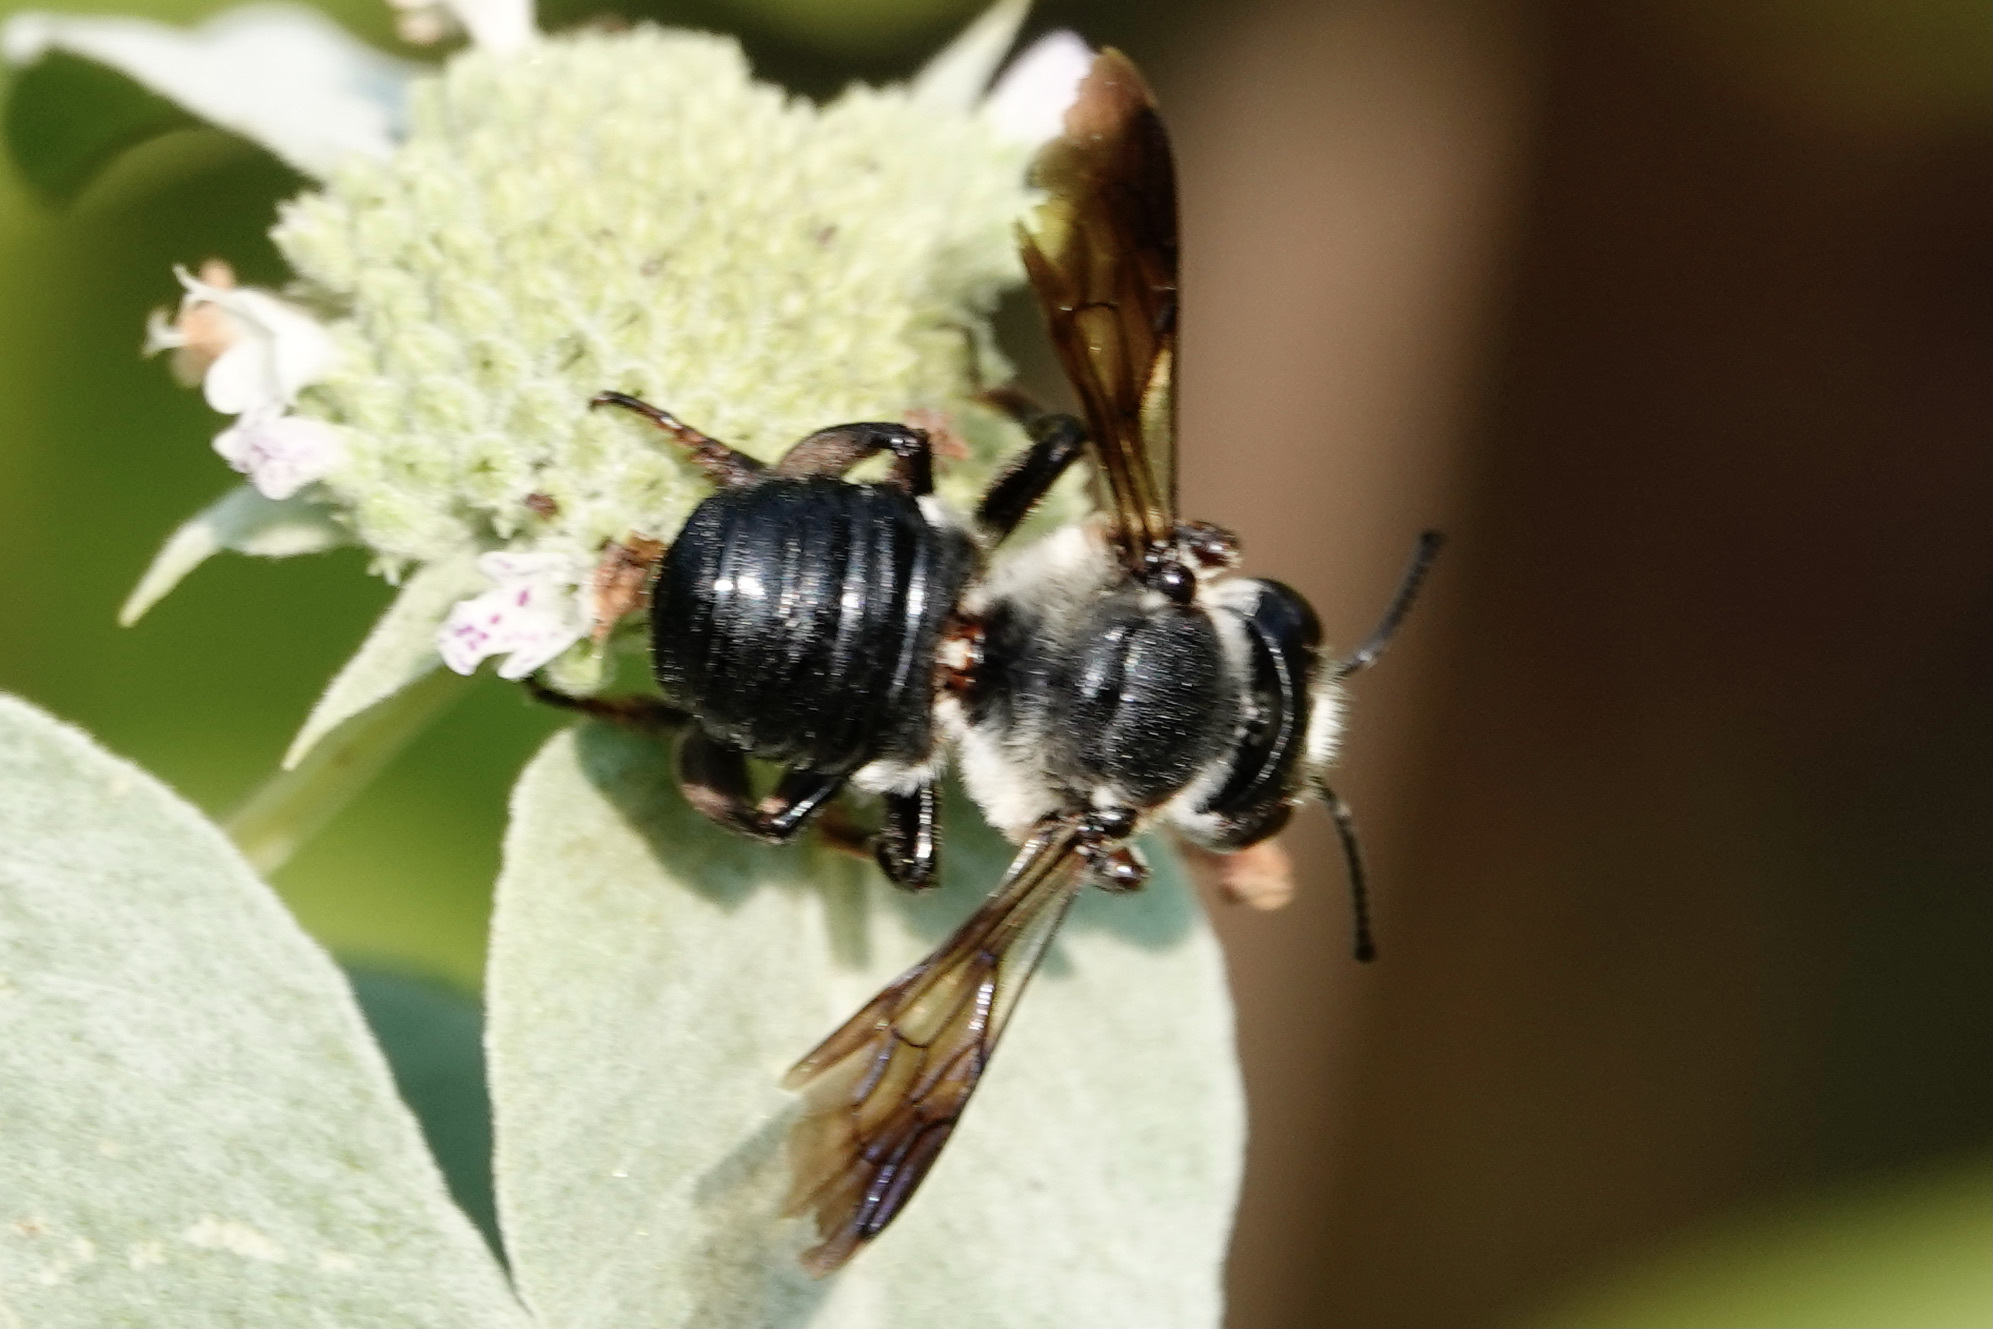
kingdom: Animalia
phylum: Arthropoda
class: Insecta
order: Hymenoptera
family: Megachilidae
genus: Megachile
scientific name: Megachile xylocopoides
